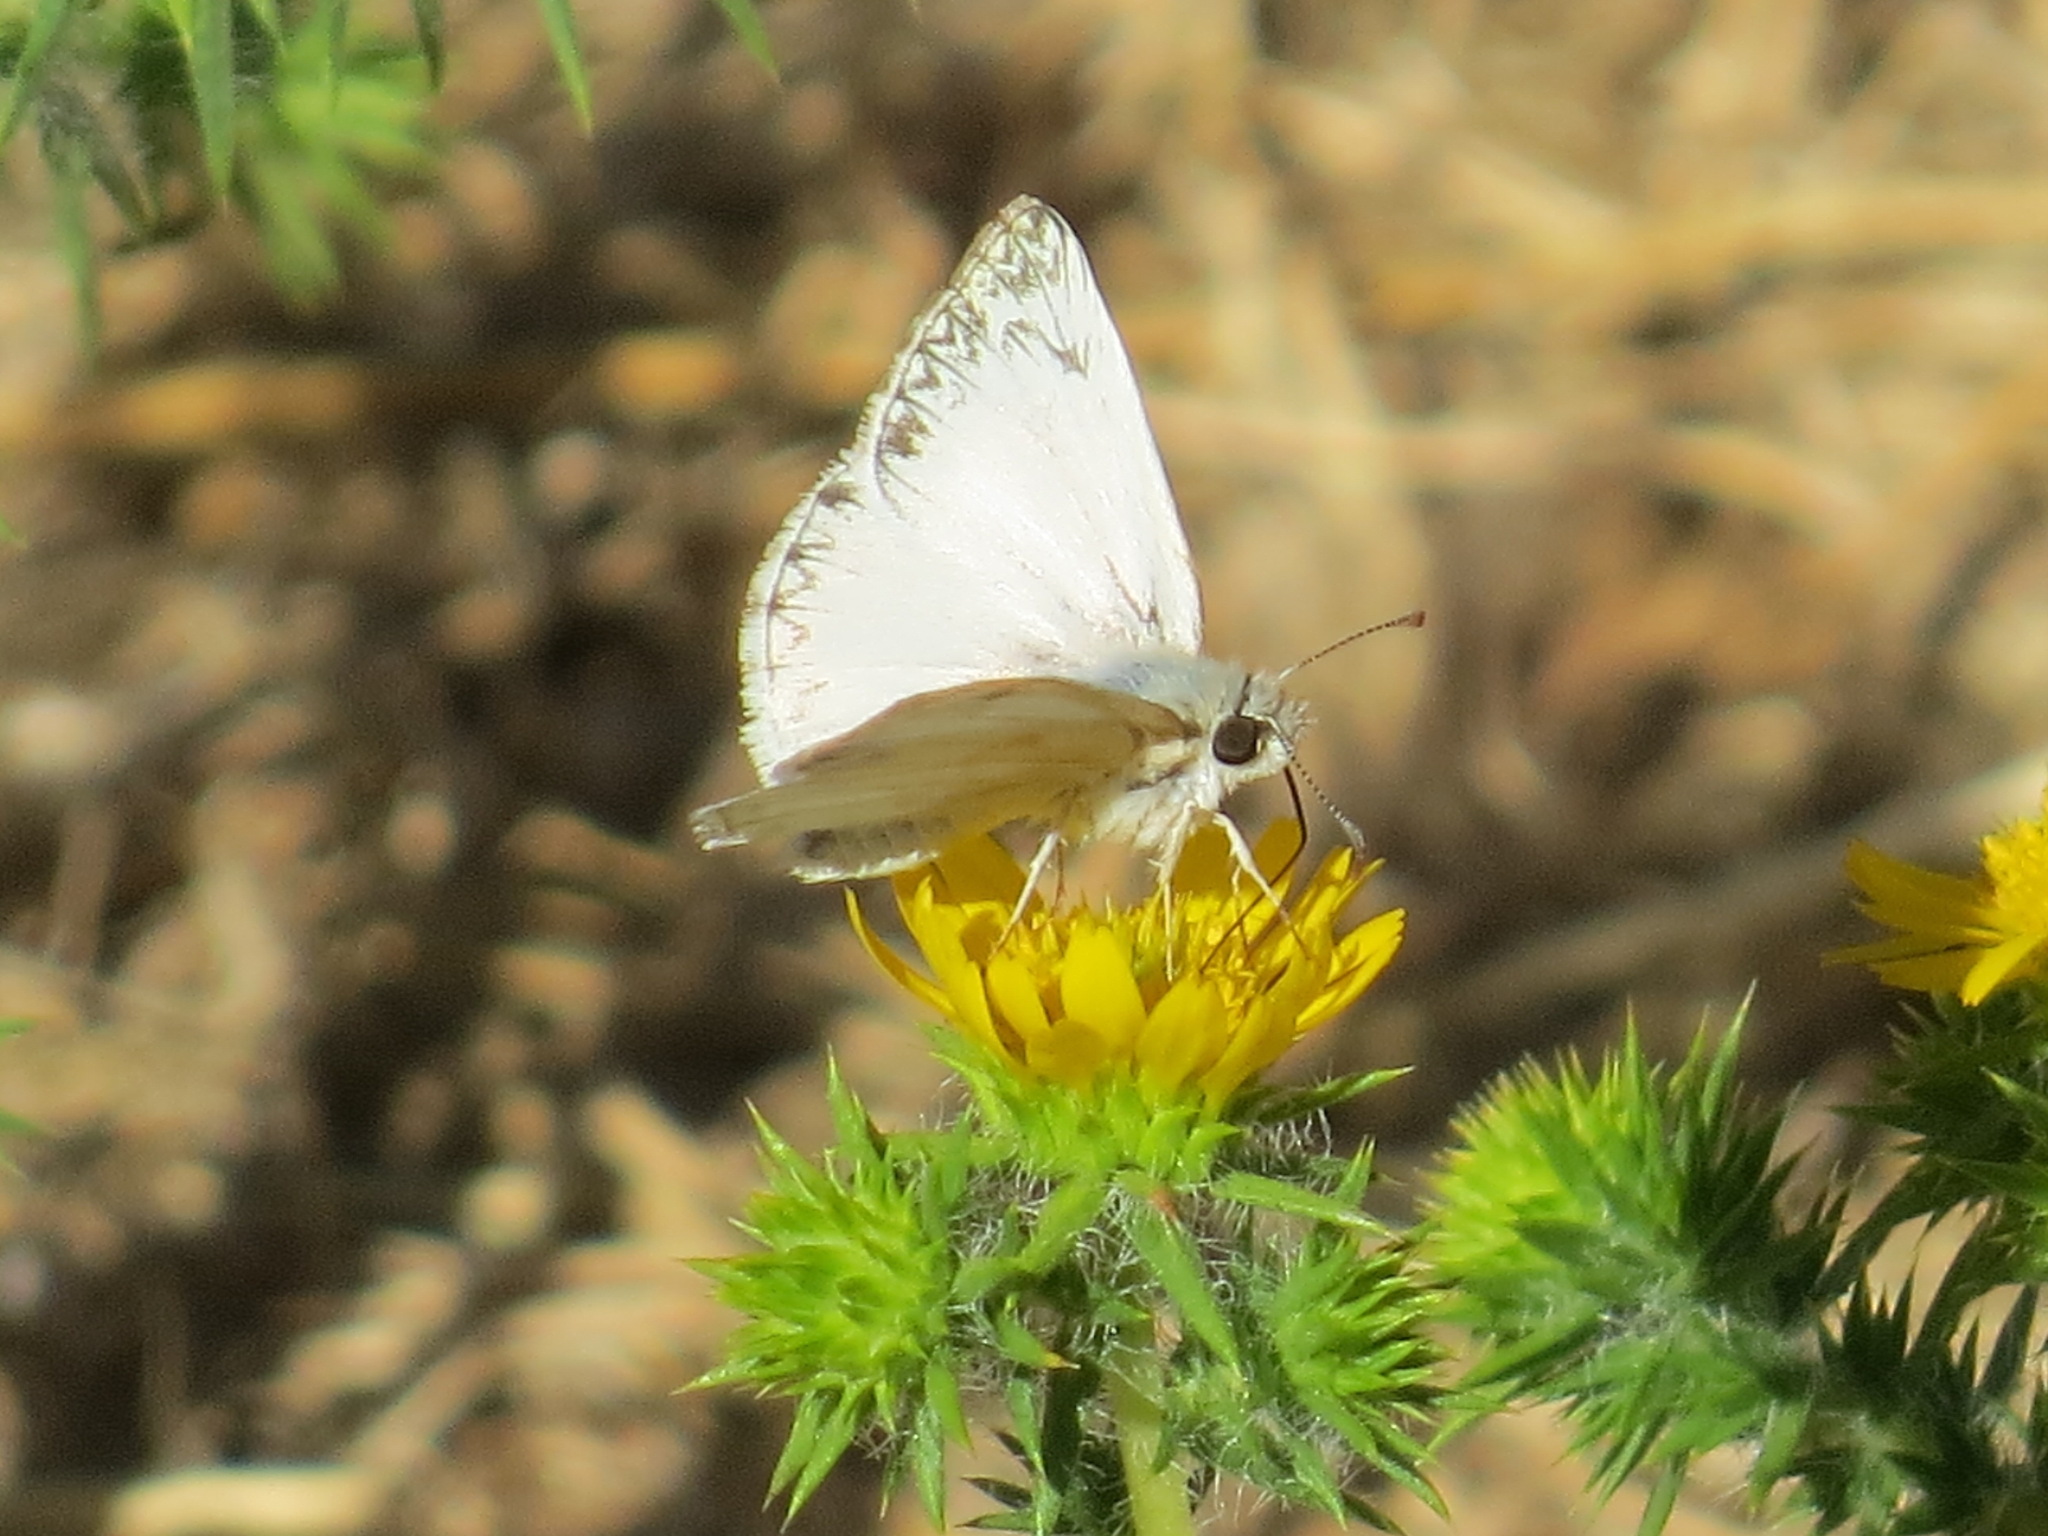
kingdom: Animalia
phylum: Arthropoda
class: Insecta
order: Lepidoptera
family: Hesperiidae
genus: Heliopetes
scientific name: Heliopetes ericetorum
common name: Northern white-skipper
